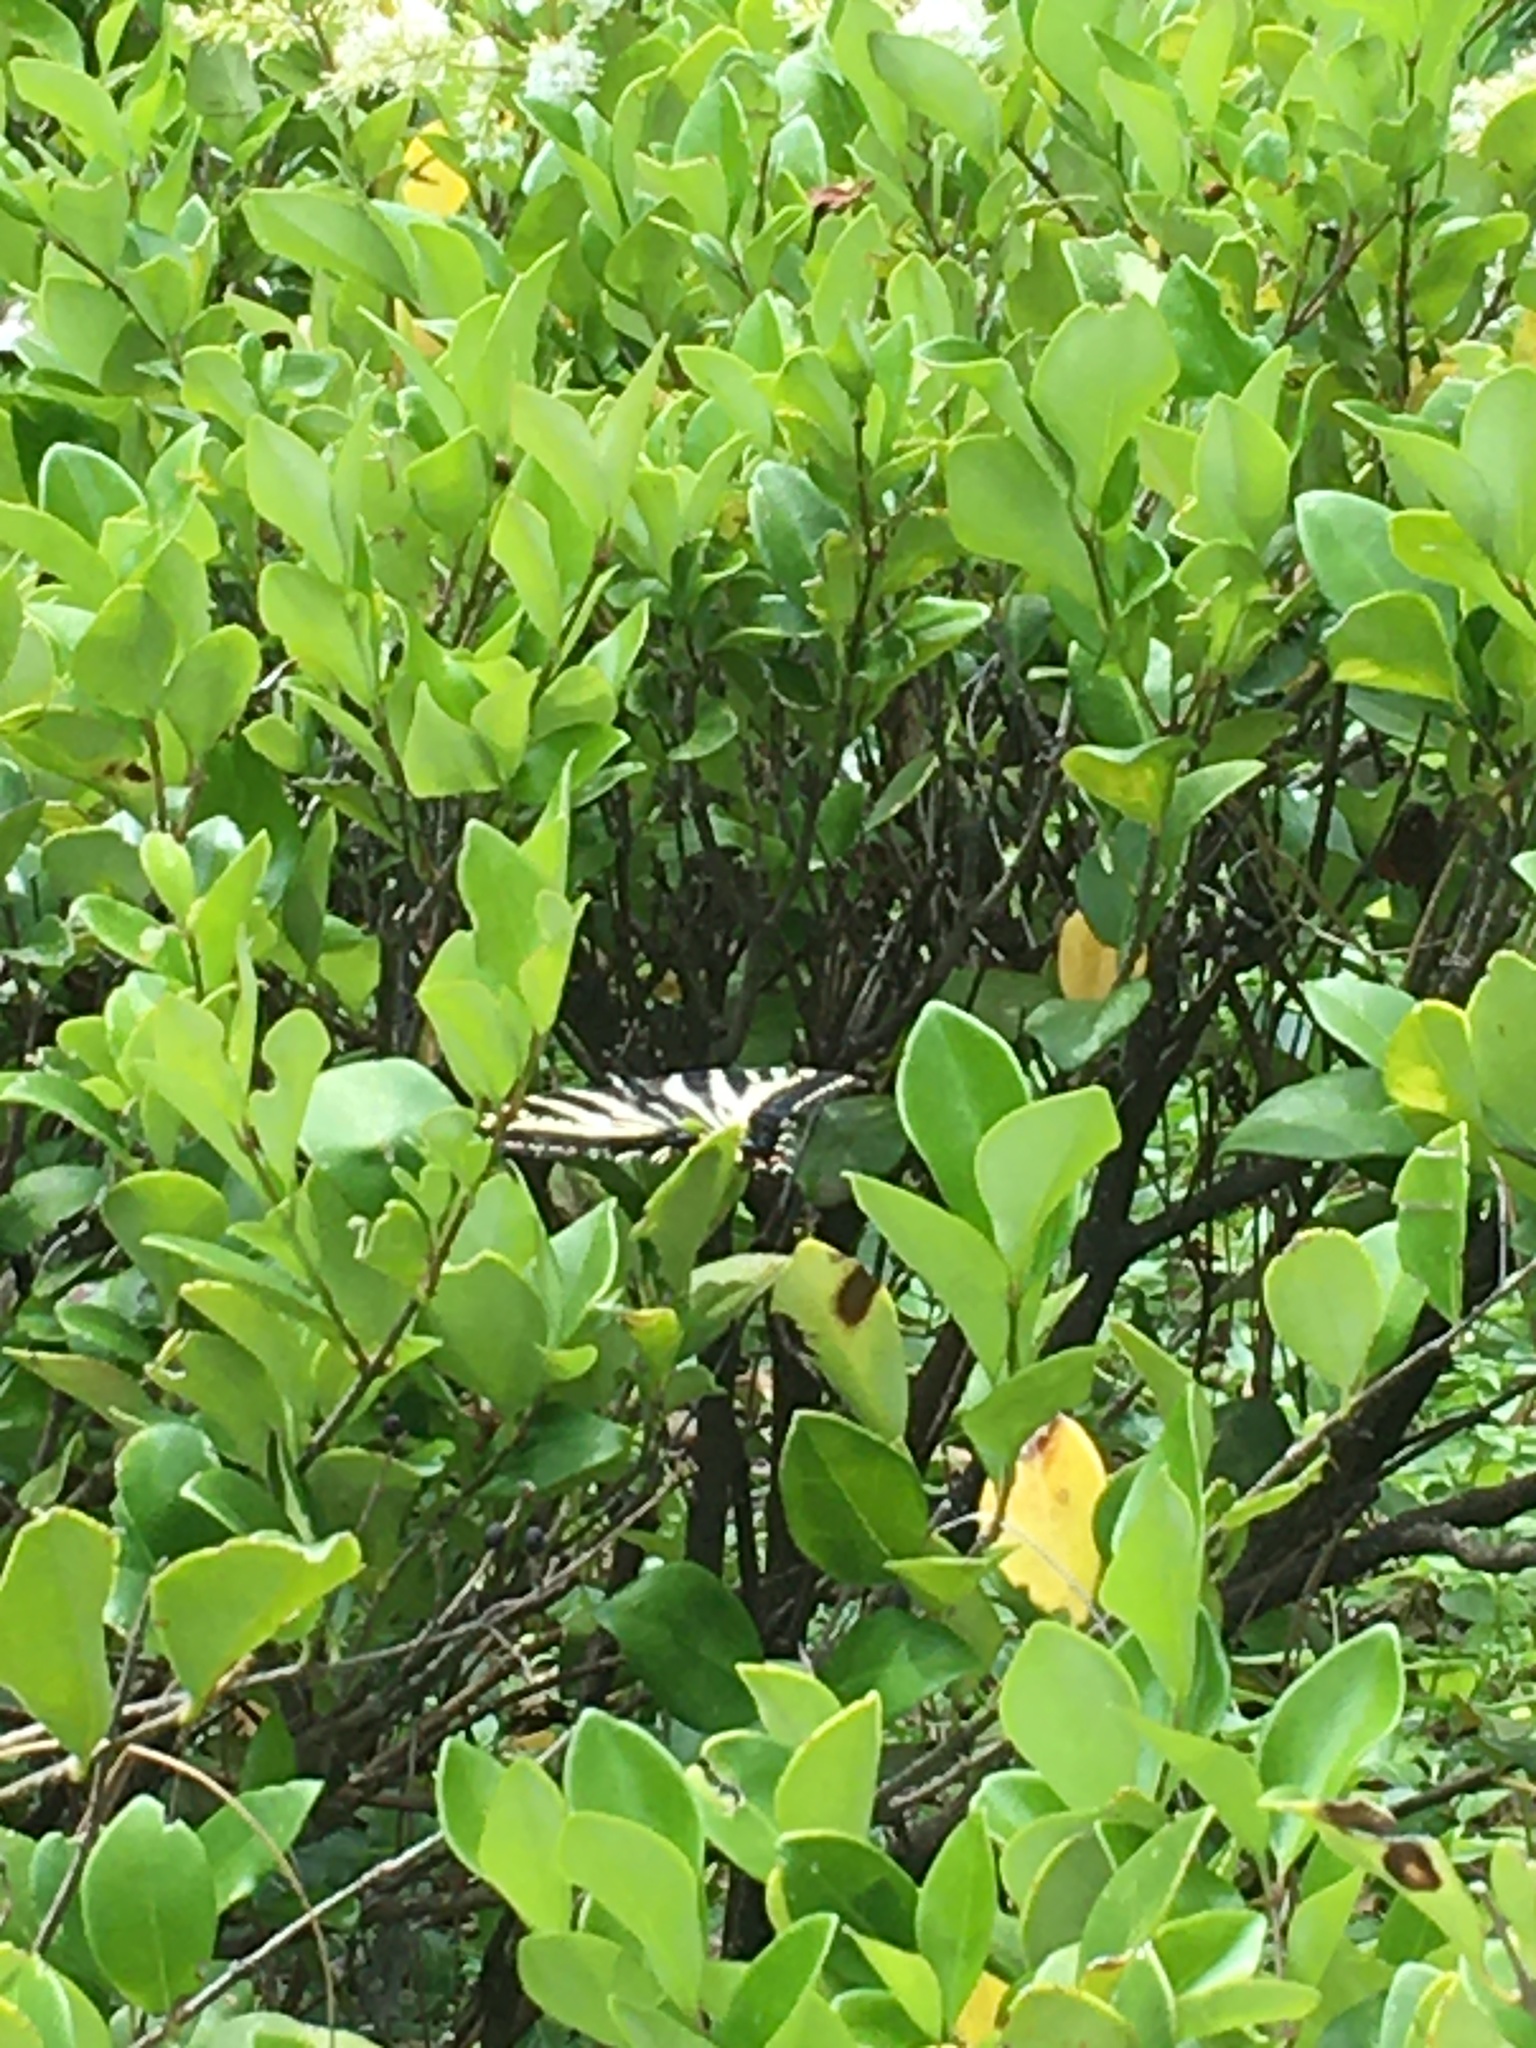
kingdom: Animalia
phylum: Arthropoda
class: Insecta
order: Lepidoptera
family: Papilionidae
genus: Papilio
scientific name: Papilio eurymedon
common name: Pale tiger swallowtail
